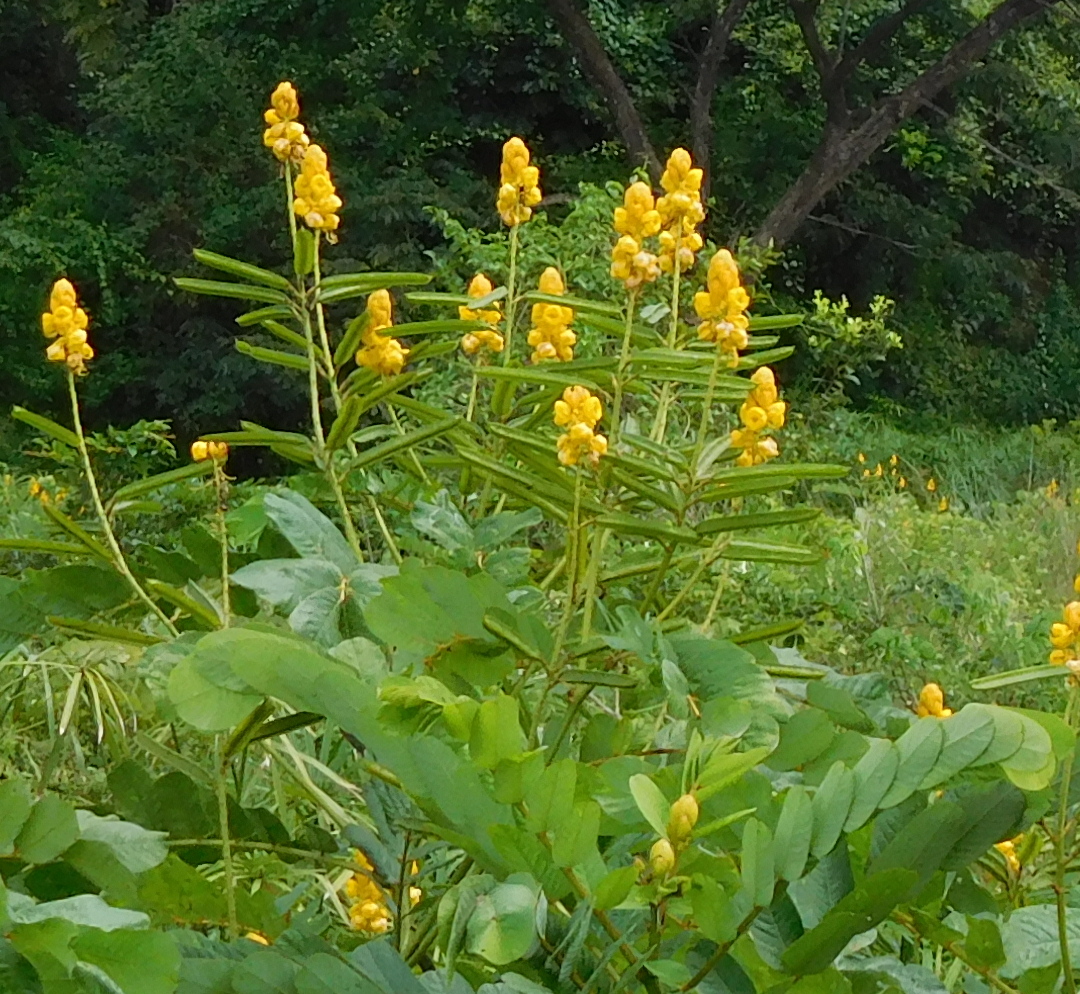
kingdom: Plantae
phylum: Tracheophyta
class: Magnoliopsida
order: Fabales
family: Fabaceae
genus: Senna
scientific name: Senna alata
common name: Emperor's candlesticks
